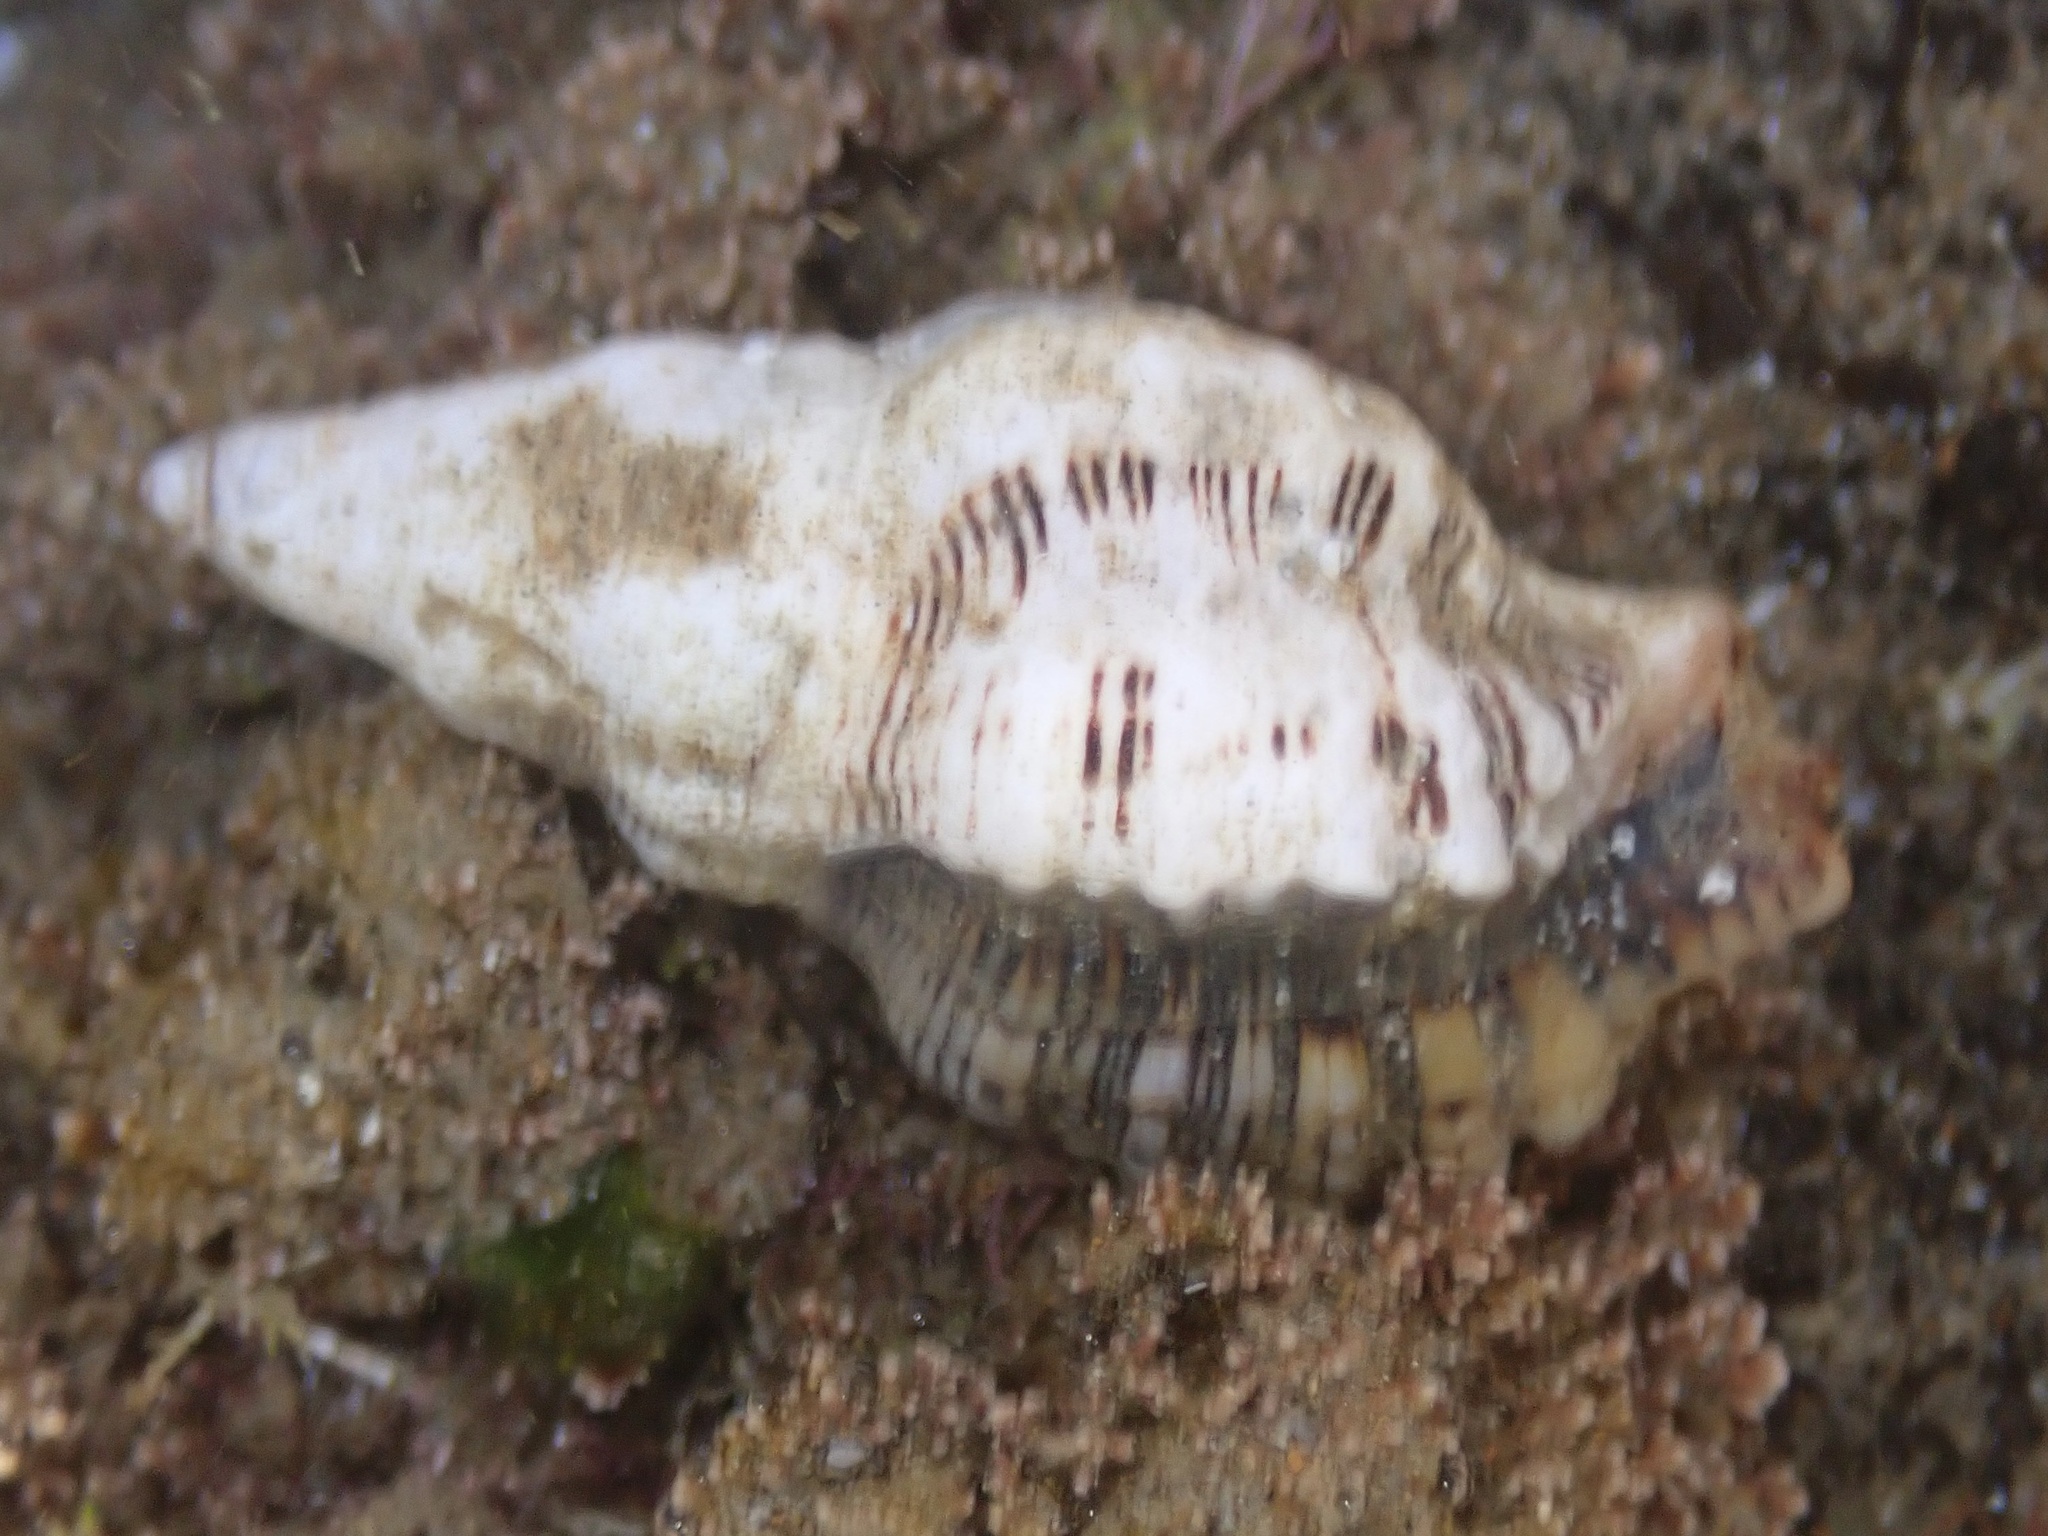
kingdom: Animalia
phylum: Mollusca
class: Gastropoda
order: Neogastropoda
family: Muricidae
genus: Roperia
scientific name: Roperia poulsoni
